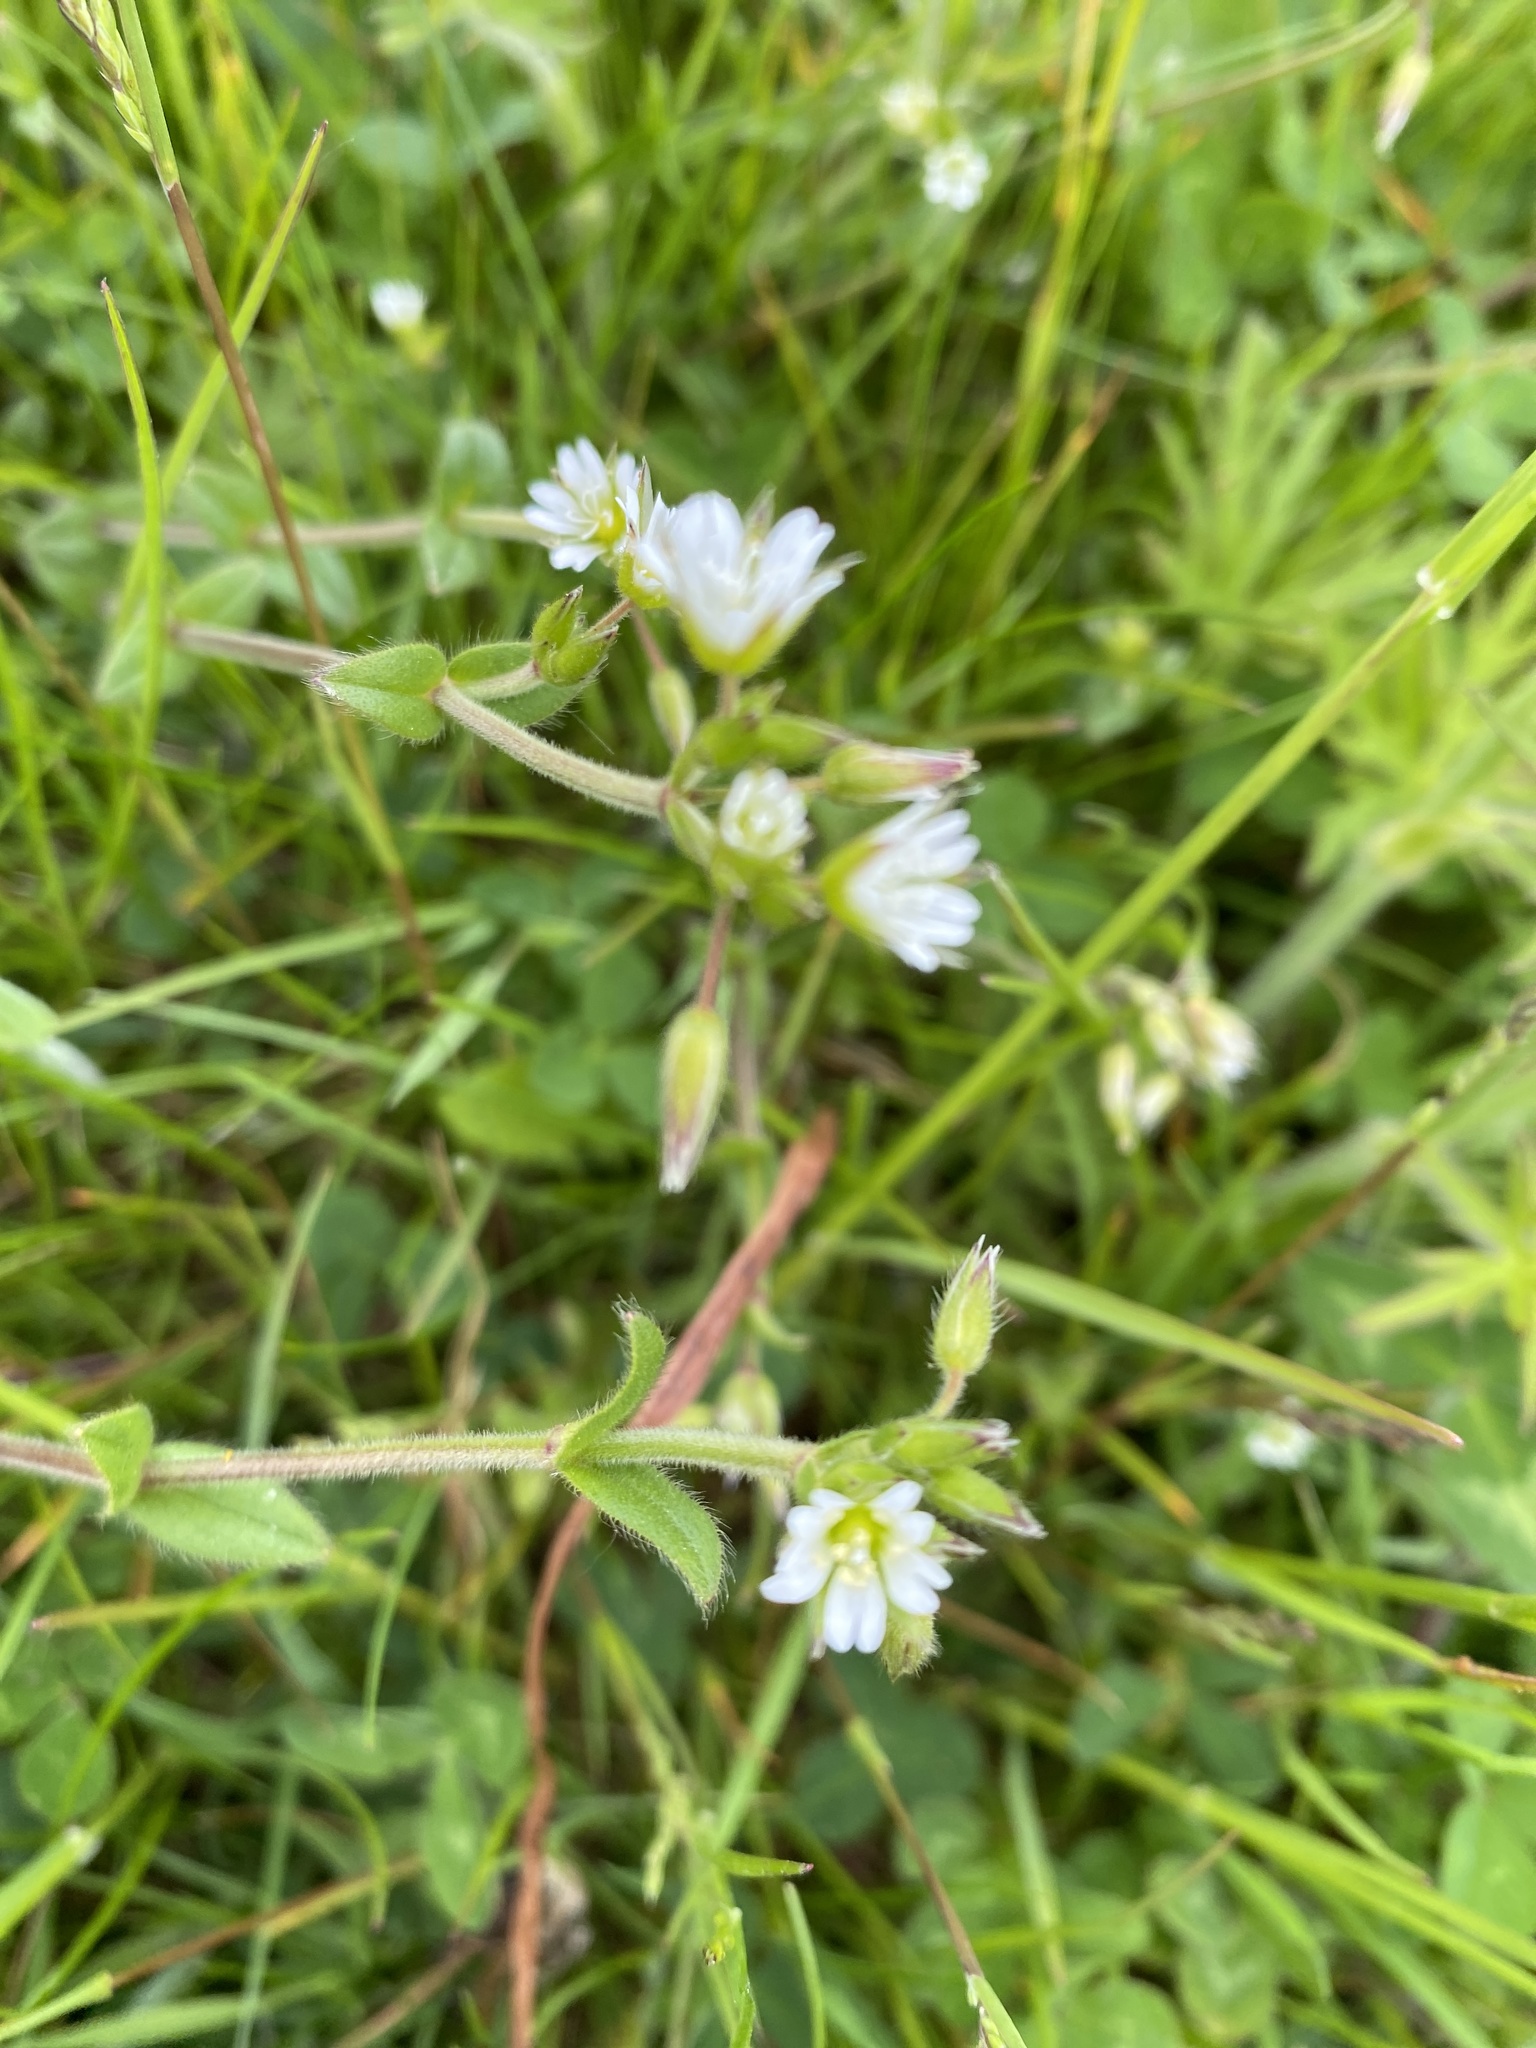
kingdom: Plantae
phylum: Tracheophyta
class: Magnoliopsida
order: Caryophyllales
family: Caryophyllaceae
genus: Cerastium
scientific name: Cerastium fontanum
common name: Common mouse-ear
